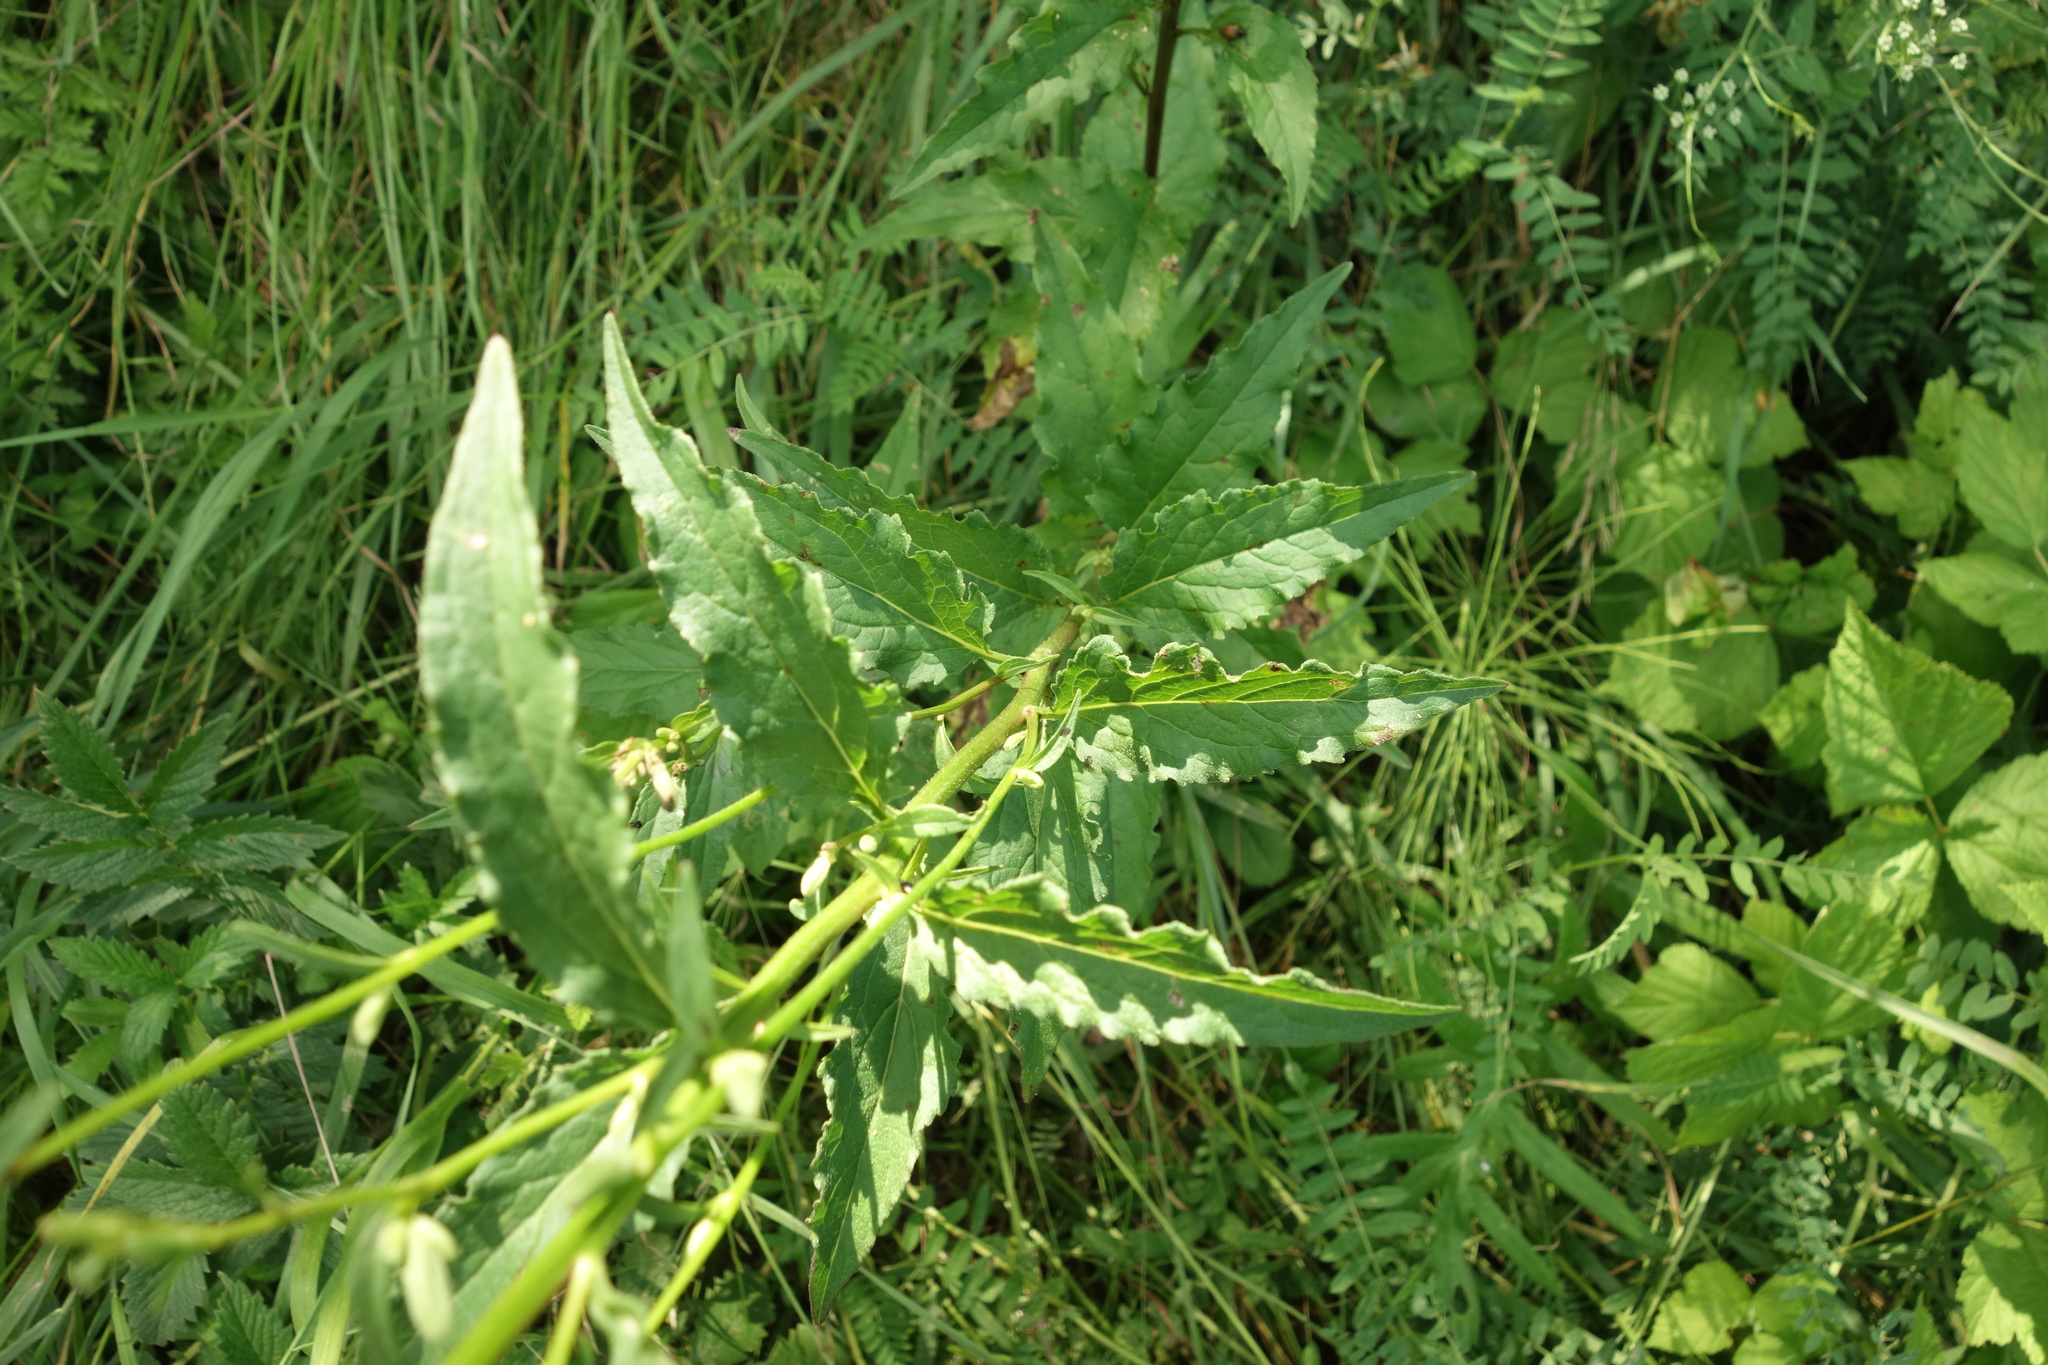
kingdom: Plantae
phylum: Tracheophyta
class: Magnoliopsida
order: Asterales
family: Campanulaceae
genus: Adenophora
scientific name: Adenophora liliifolia
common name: Lilyleaf ladybells
